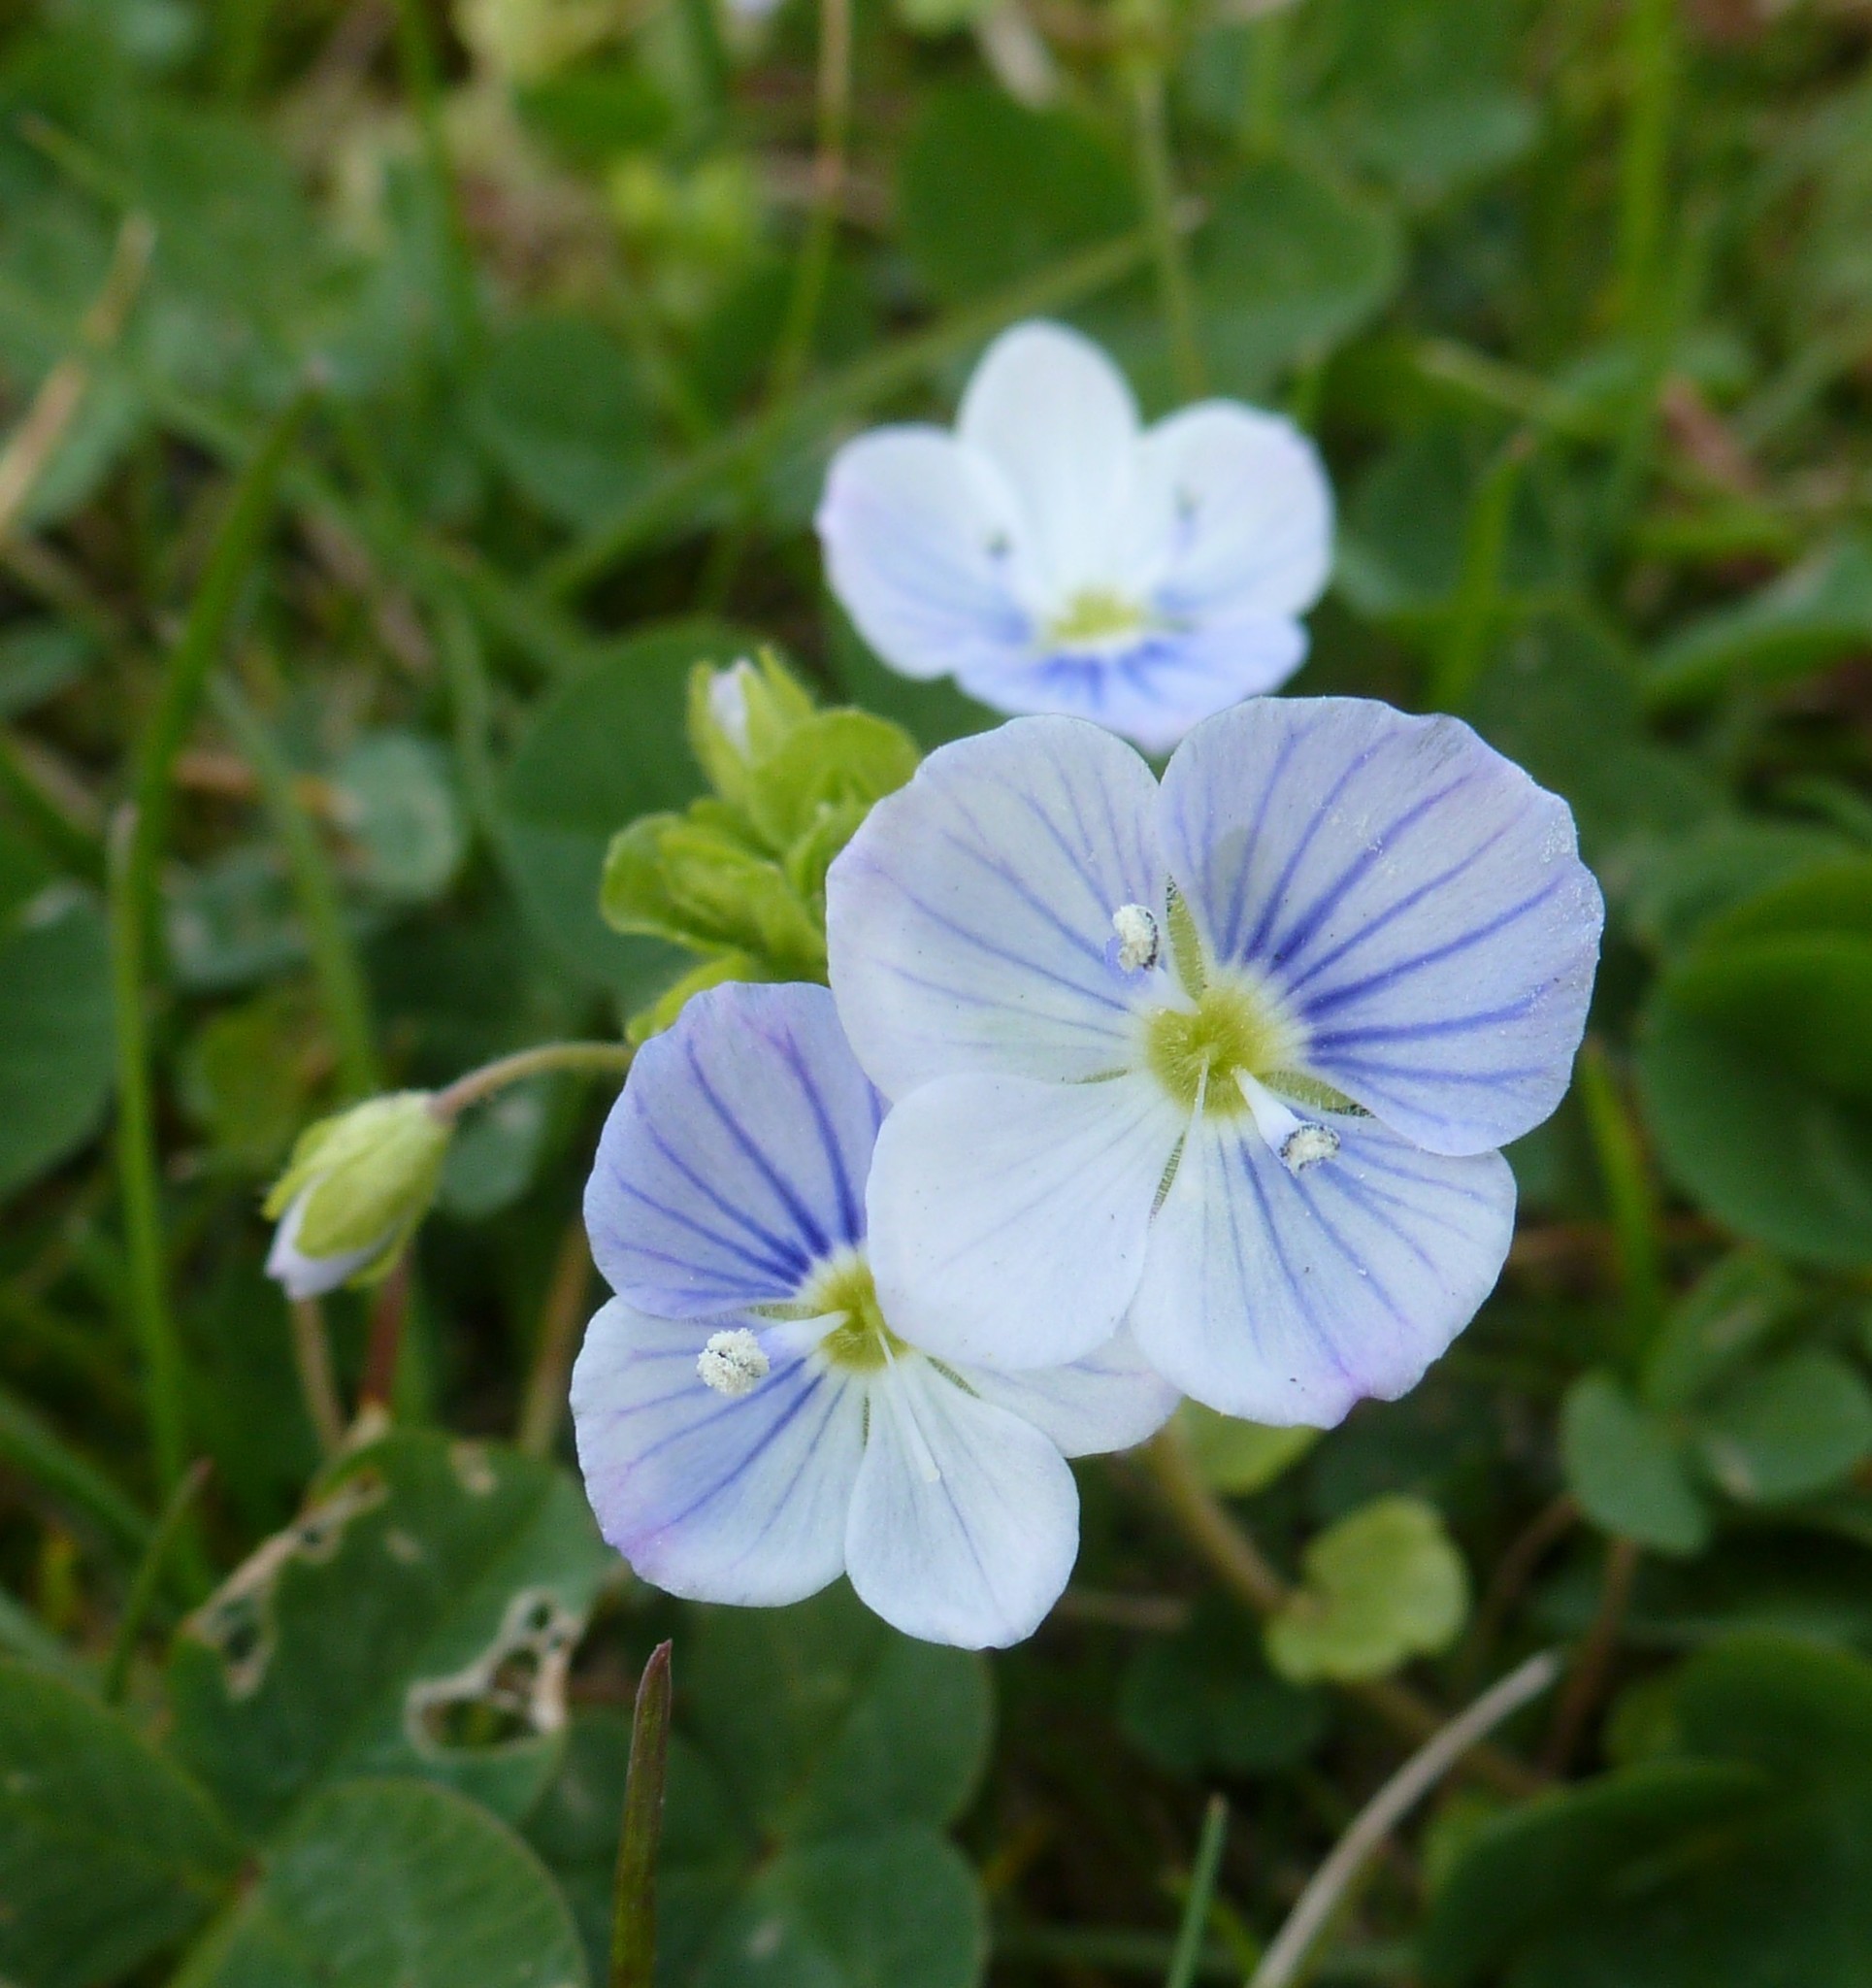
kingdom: Plantae
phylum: Tracheophyta
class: Magnoliopsida
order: Lamiales
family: Plantaginaceae
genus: Veronica
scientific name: Veronica filiformis
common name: Slender speedwell
